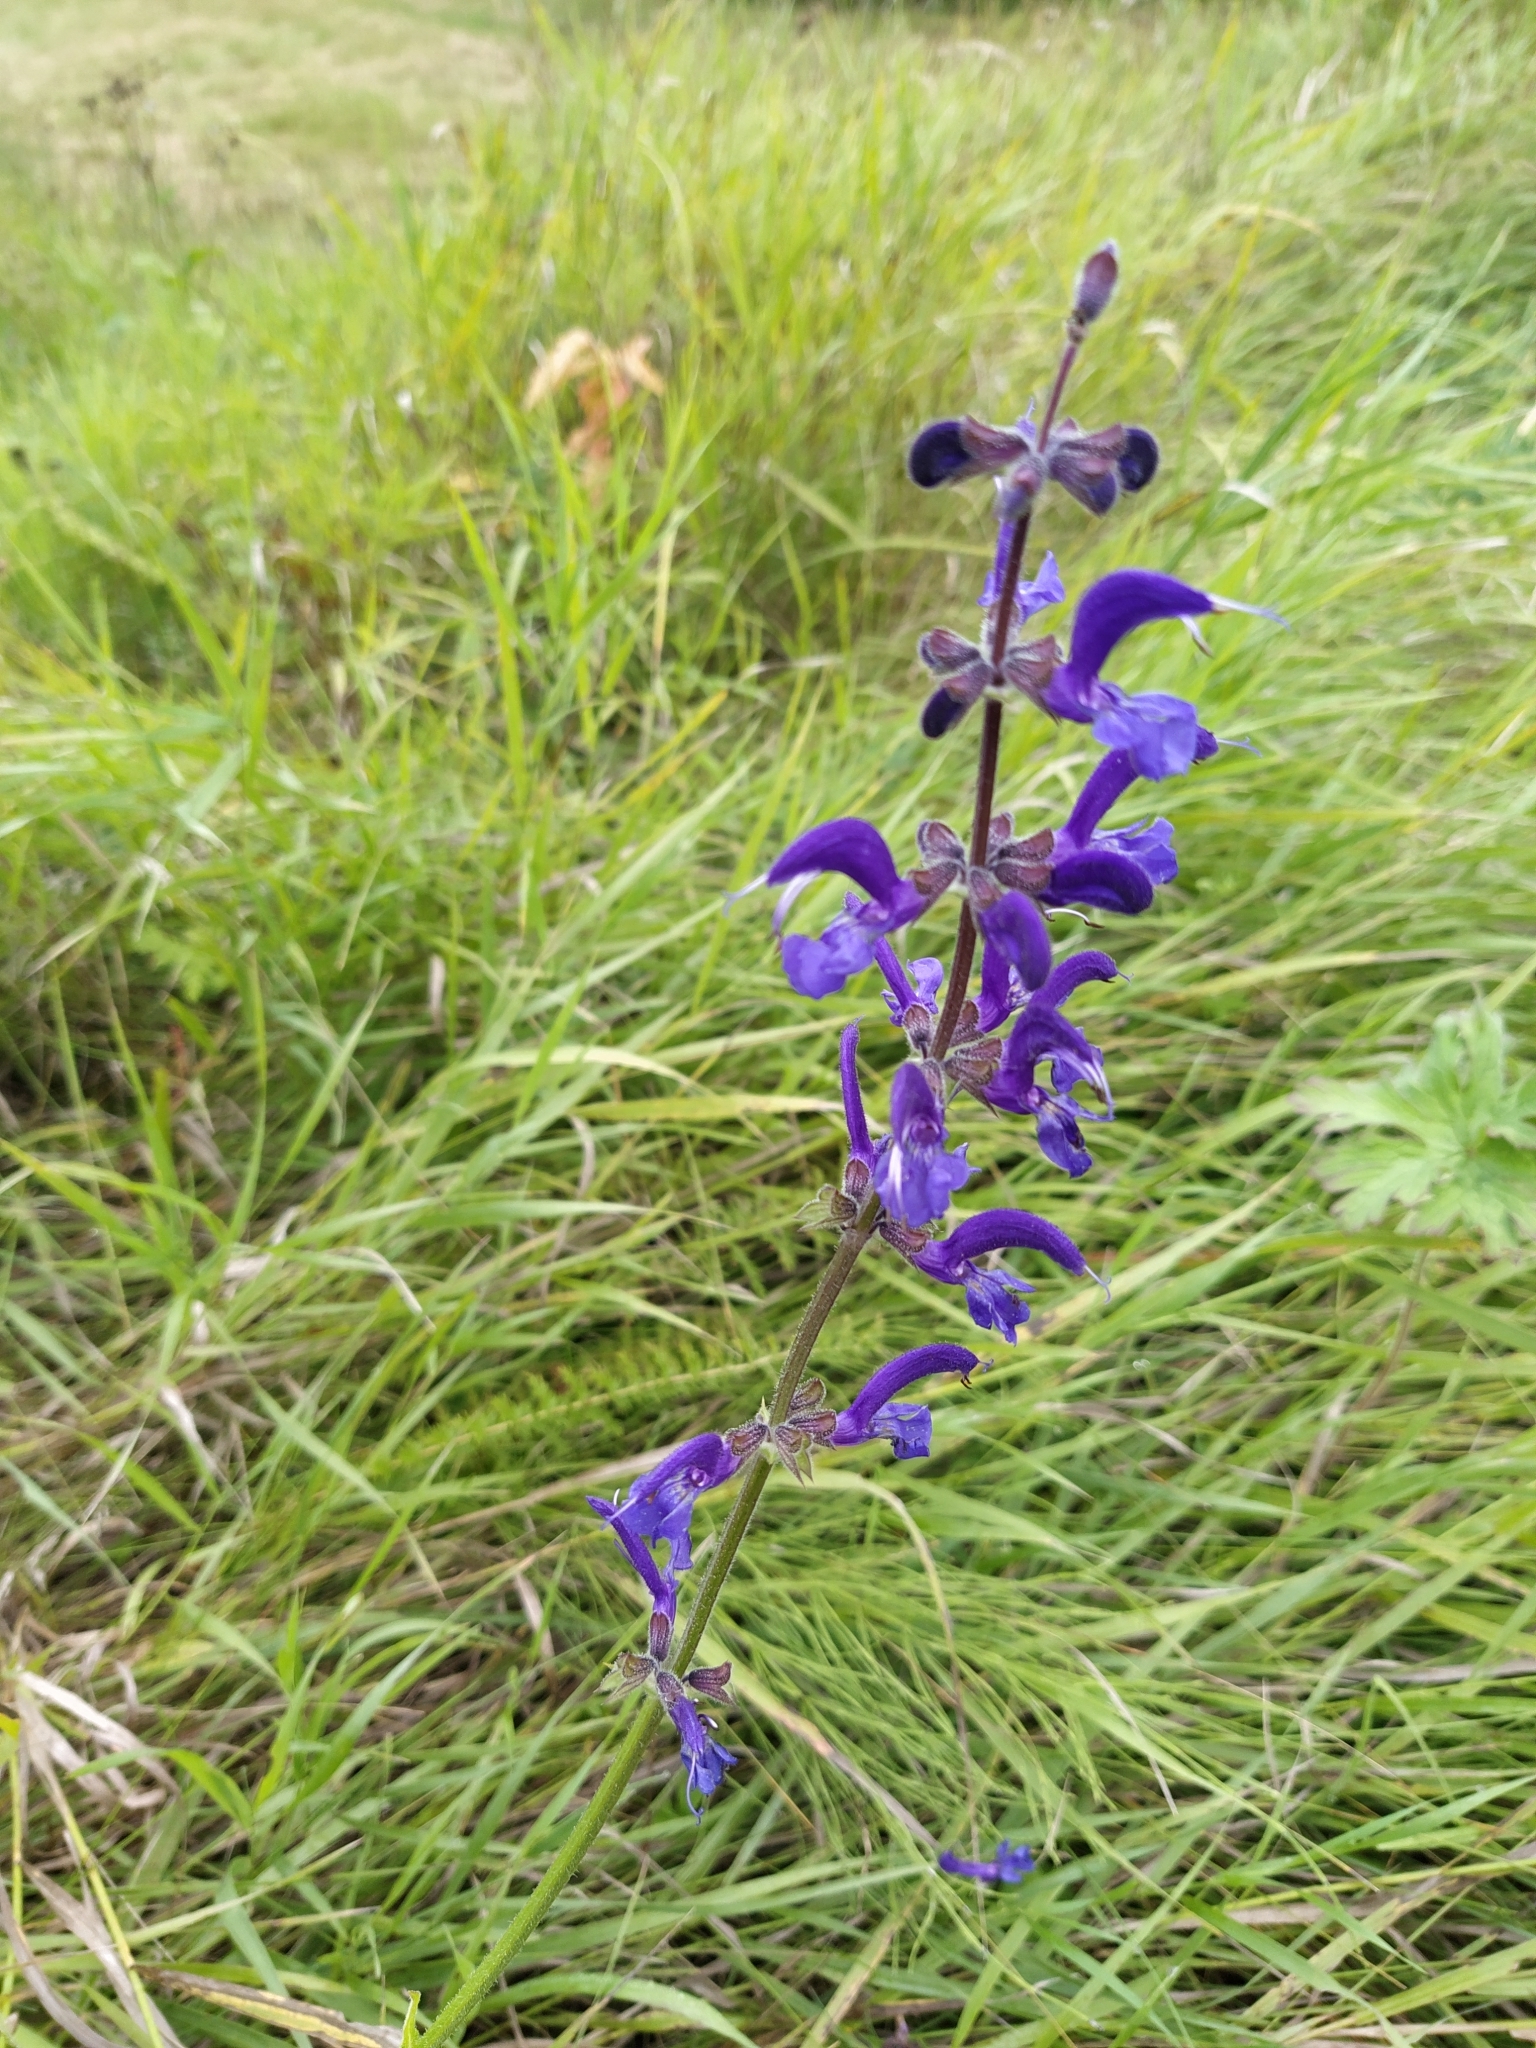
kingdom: Plantae
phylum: Tracheophyta
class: Magnoliopsida
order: Lamiales
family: Lamiaceae
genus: Salvia
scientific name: Salvia pratensis
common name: Meadow sage
